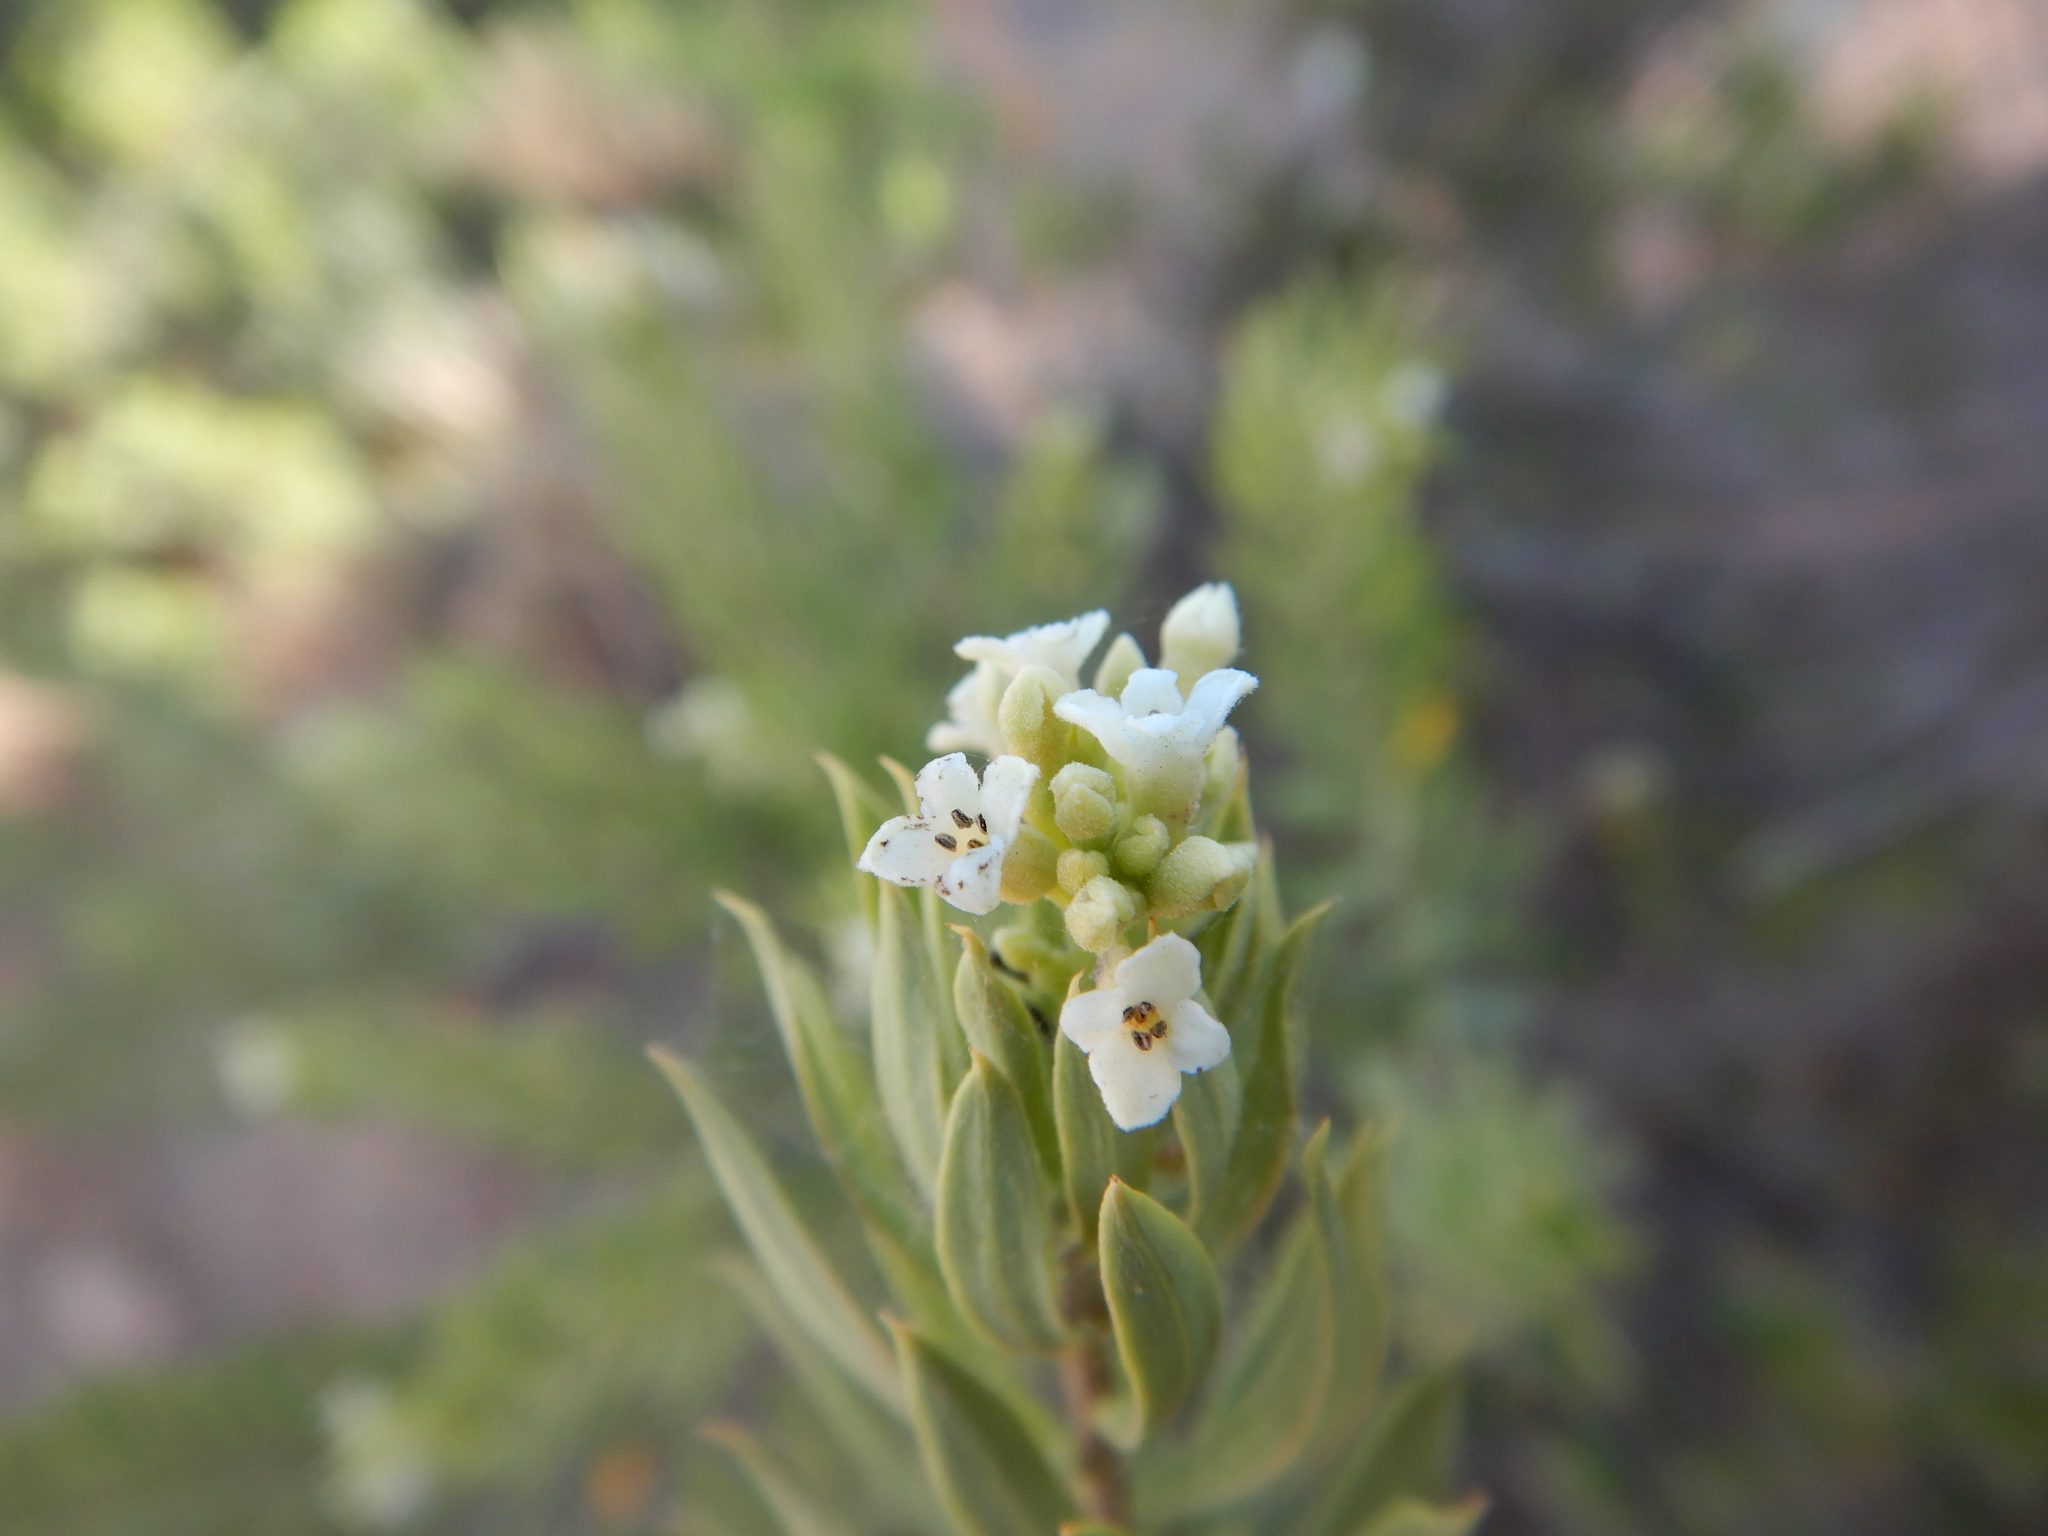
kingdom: Plantae
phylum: Tracheophyta
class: Magnoliopsida
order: Malvales
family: Thymelaeaceae
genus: Daphne
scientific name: Daphne gnidium
